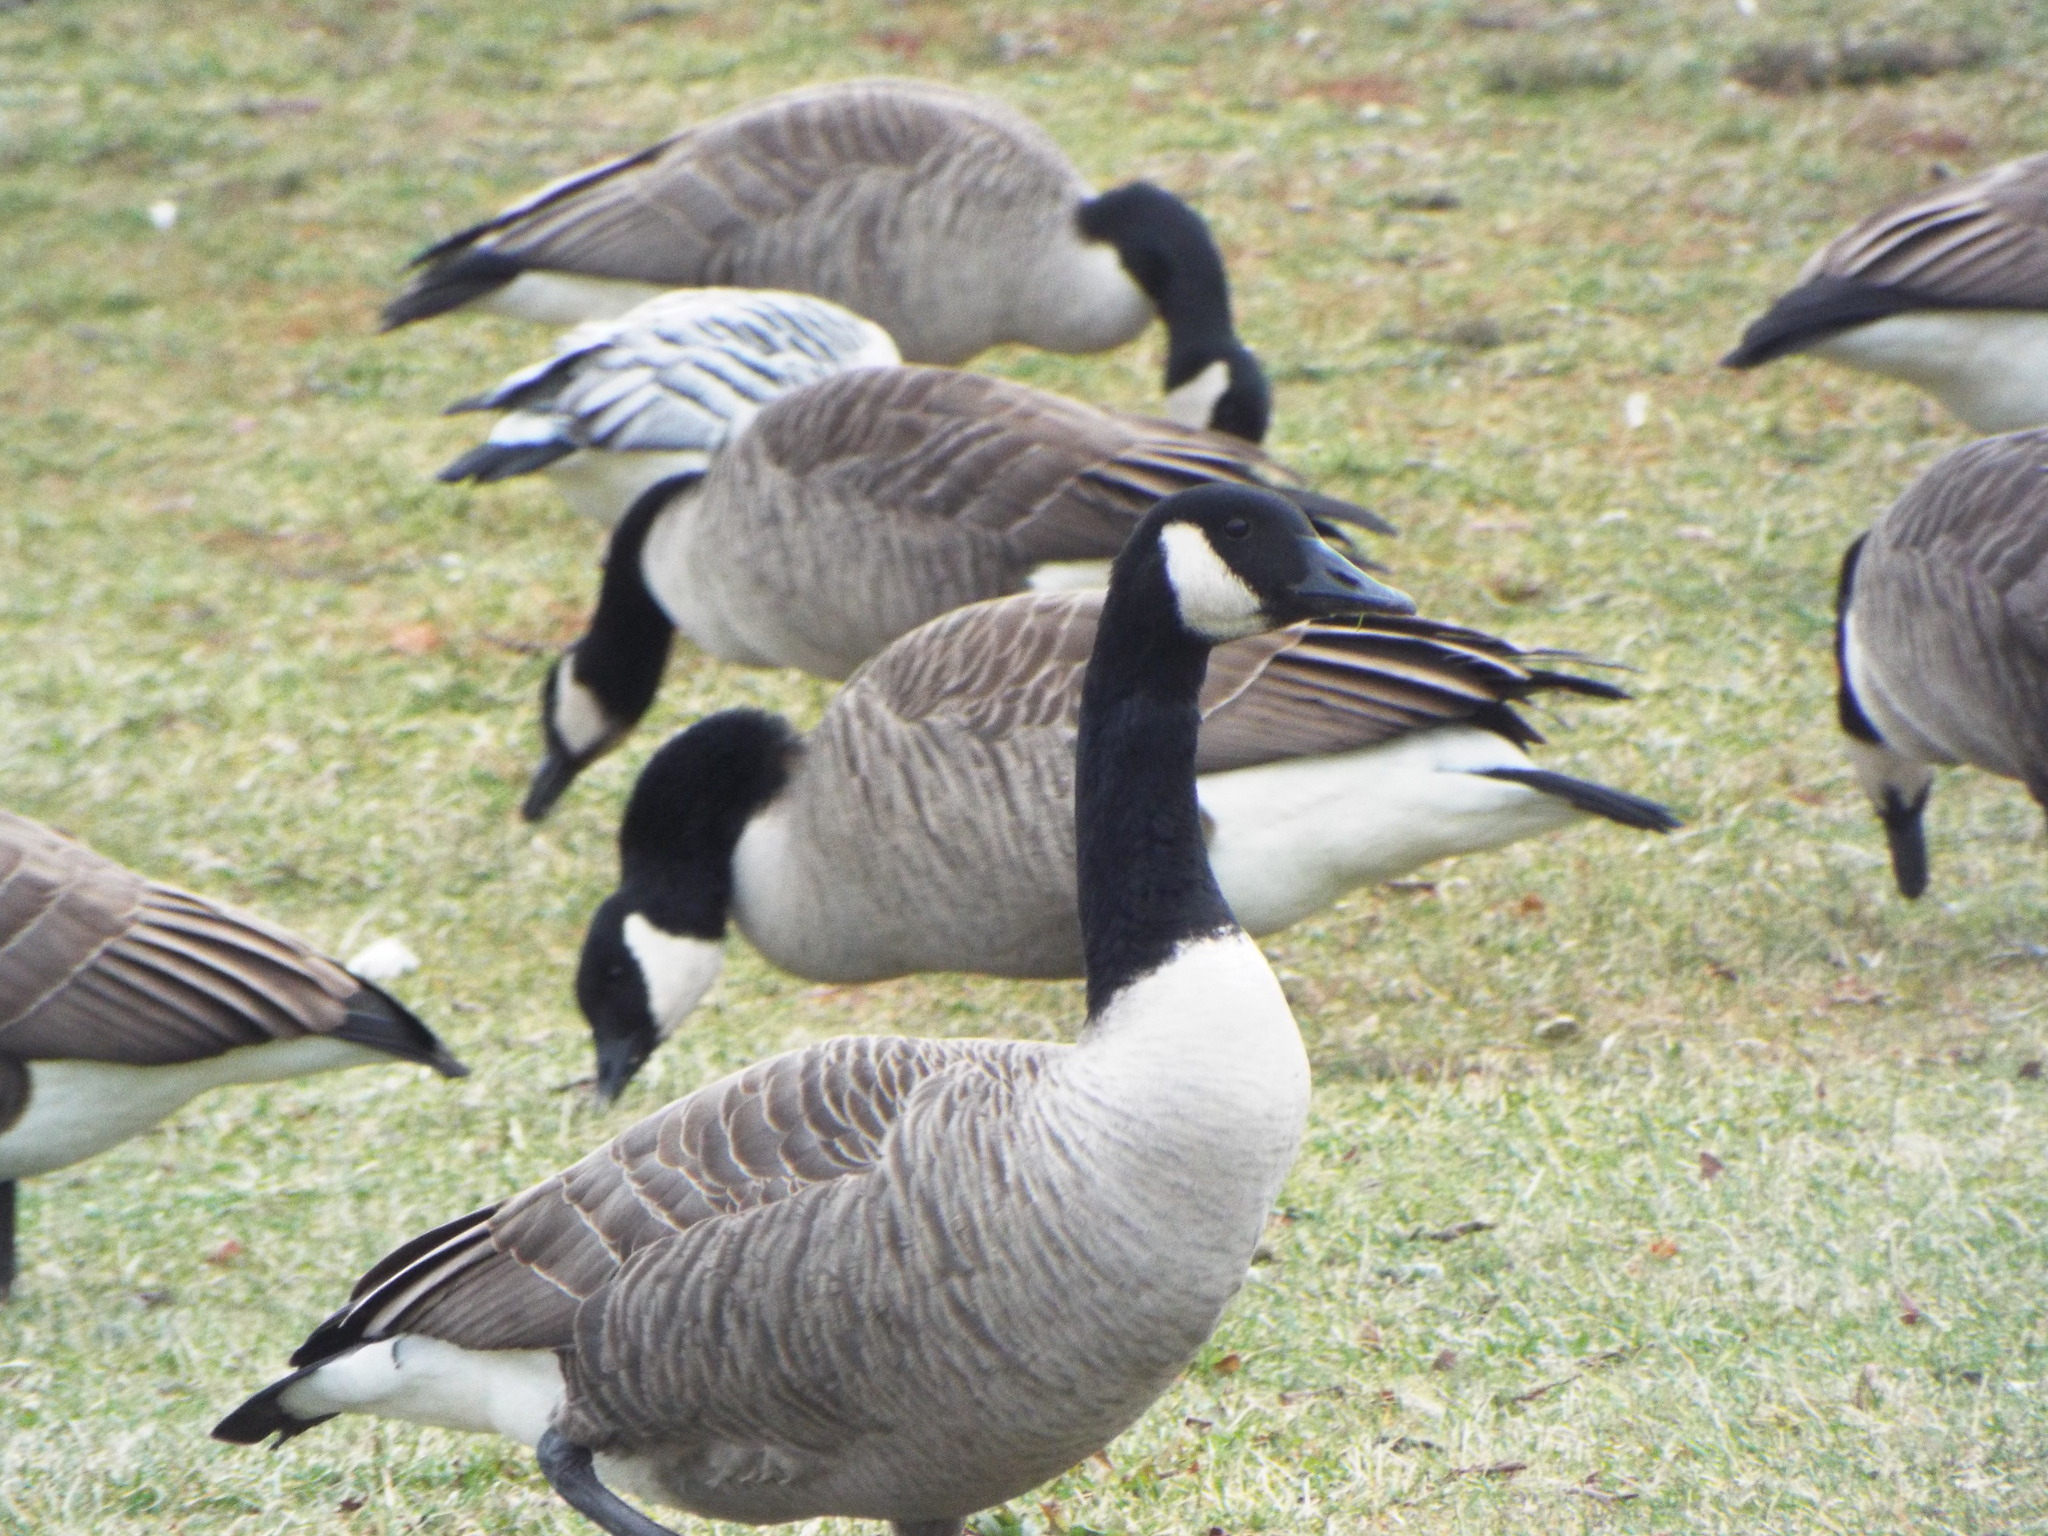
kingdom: Animalia
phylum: Chordata
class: Aves
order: Anseriformes
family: Anatidae
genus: Branta
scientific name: Branta canadensis
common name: Canada goose
